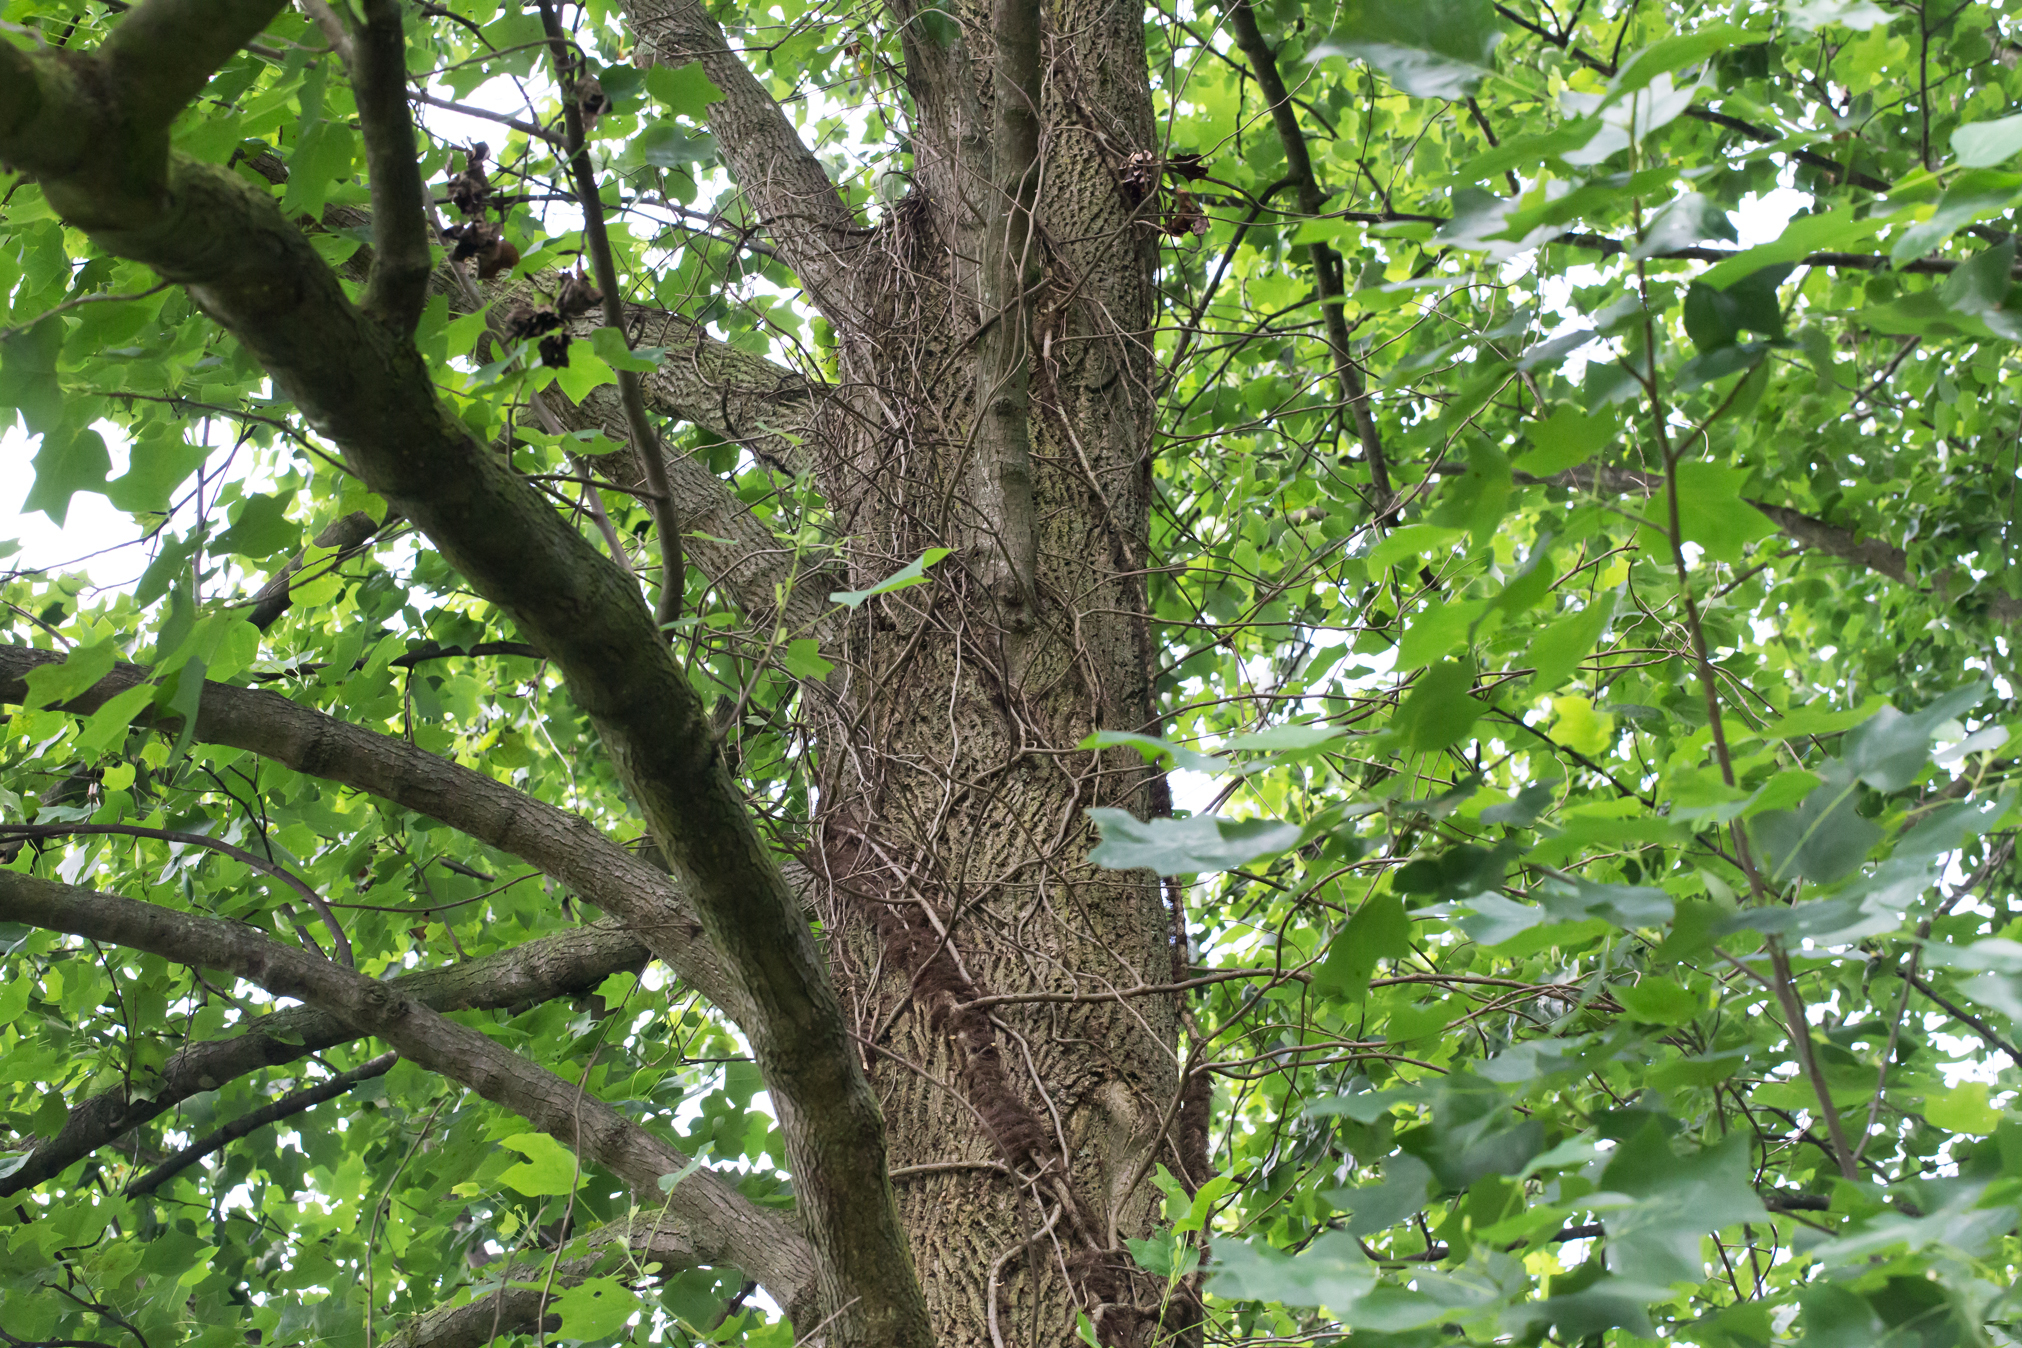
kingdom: Plantae
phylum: Tracheophyta
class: Magnoliopsida
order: Magnoliales
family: Magnoliaceae
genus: Liriodendron
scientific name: Liriodendron tulipifera
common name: Tulip tree
